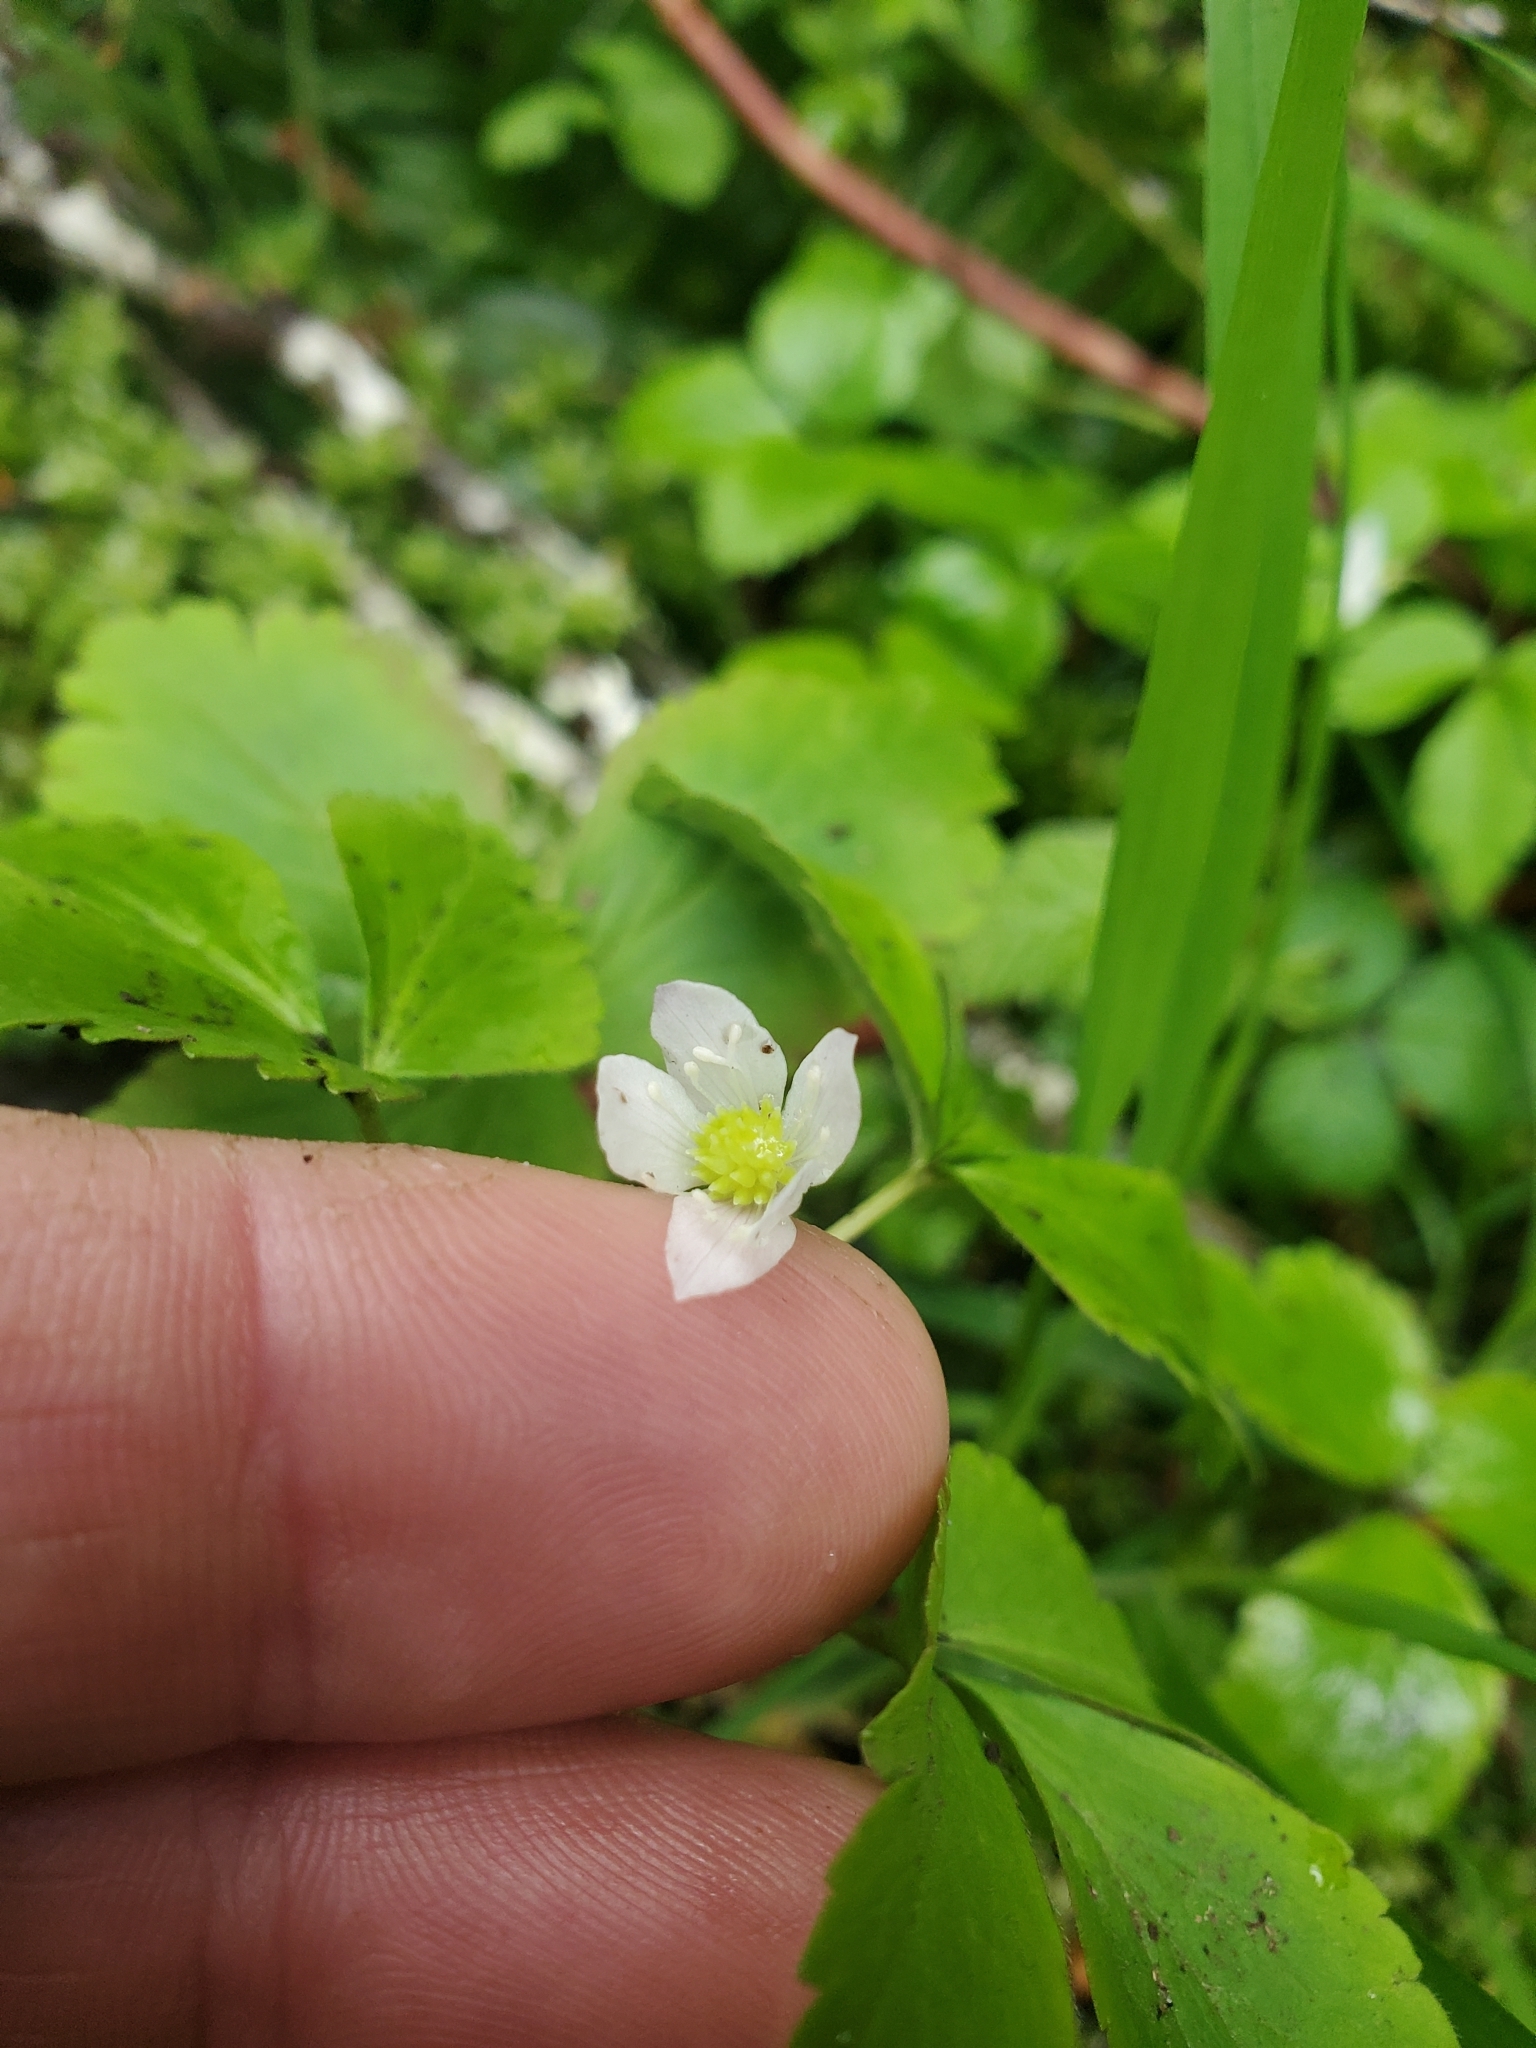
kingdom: Plantae
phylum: Tracheophyta
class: Magnoliopsida
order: Ranunculales
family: Ranunculaceae
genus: Anemone
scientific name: Anemone
